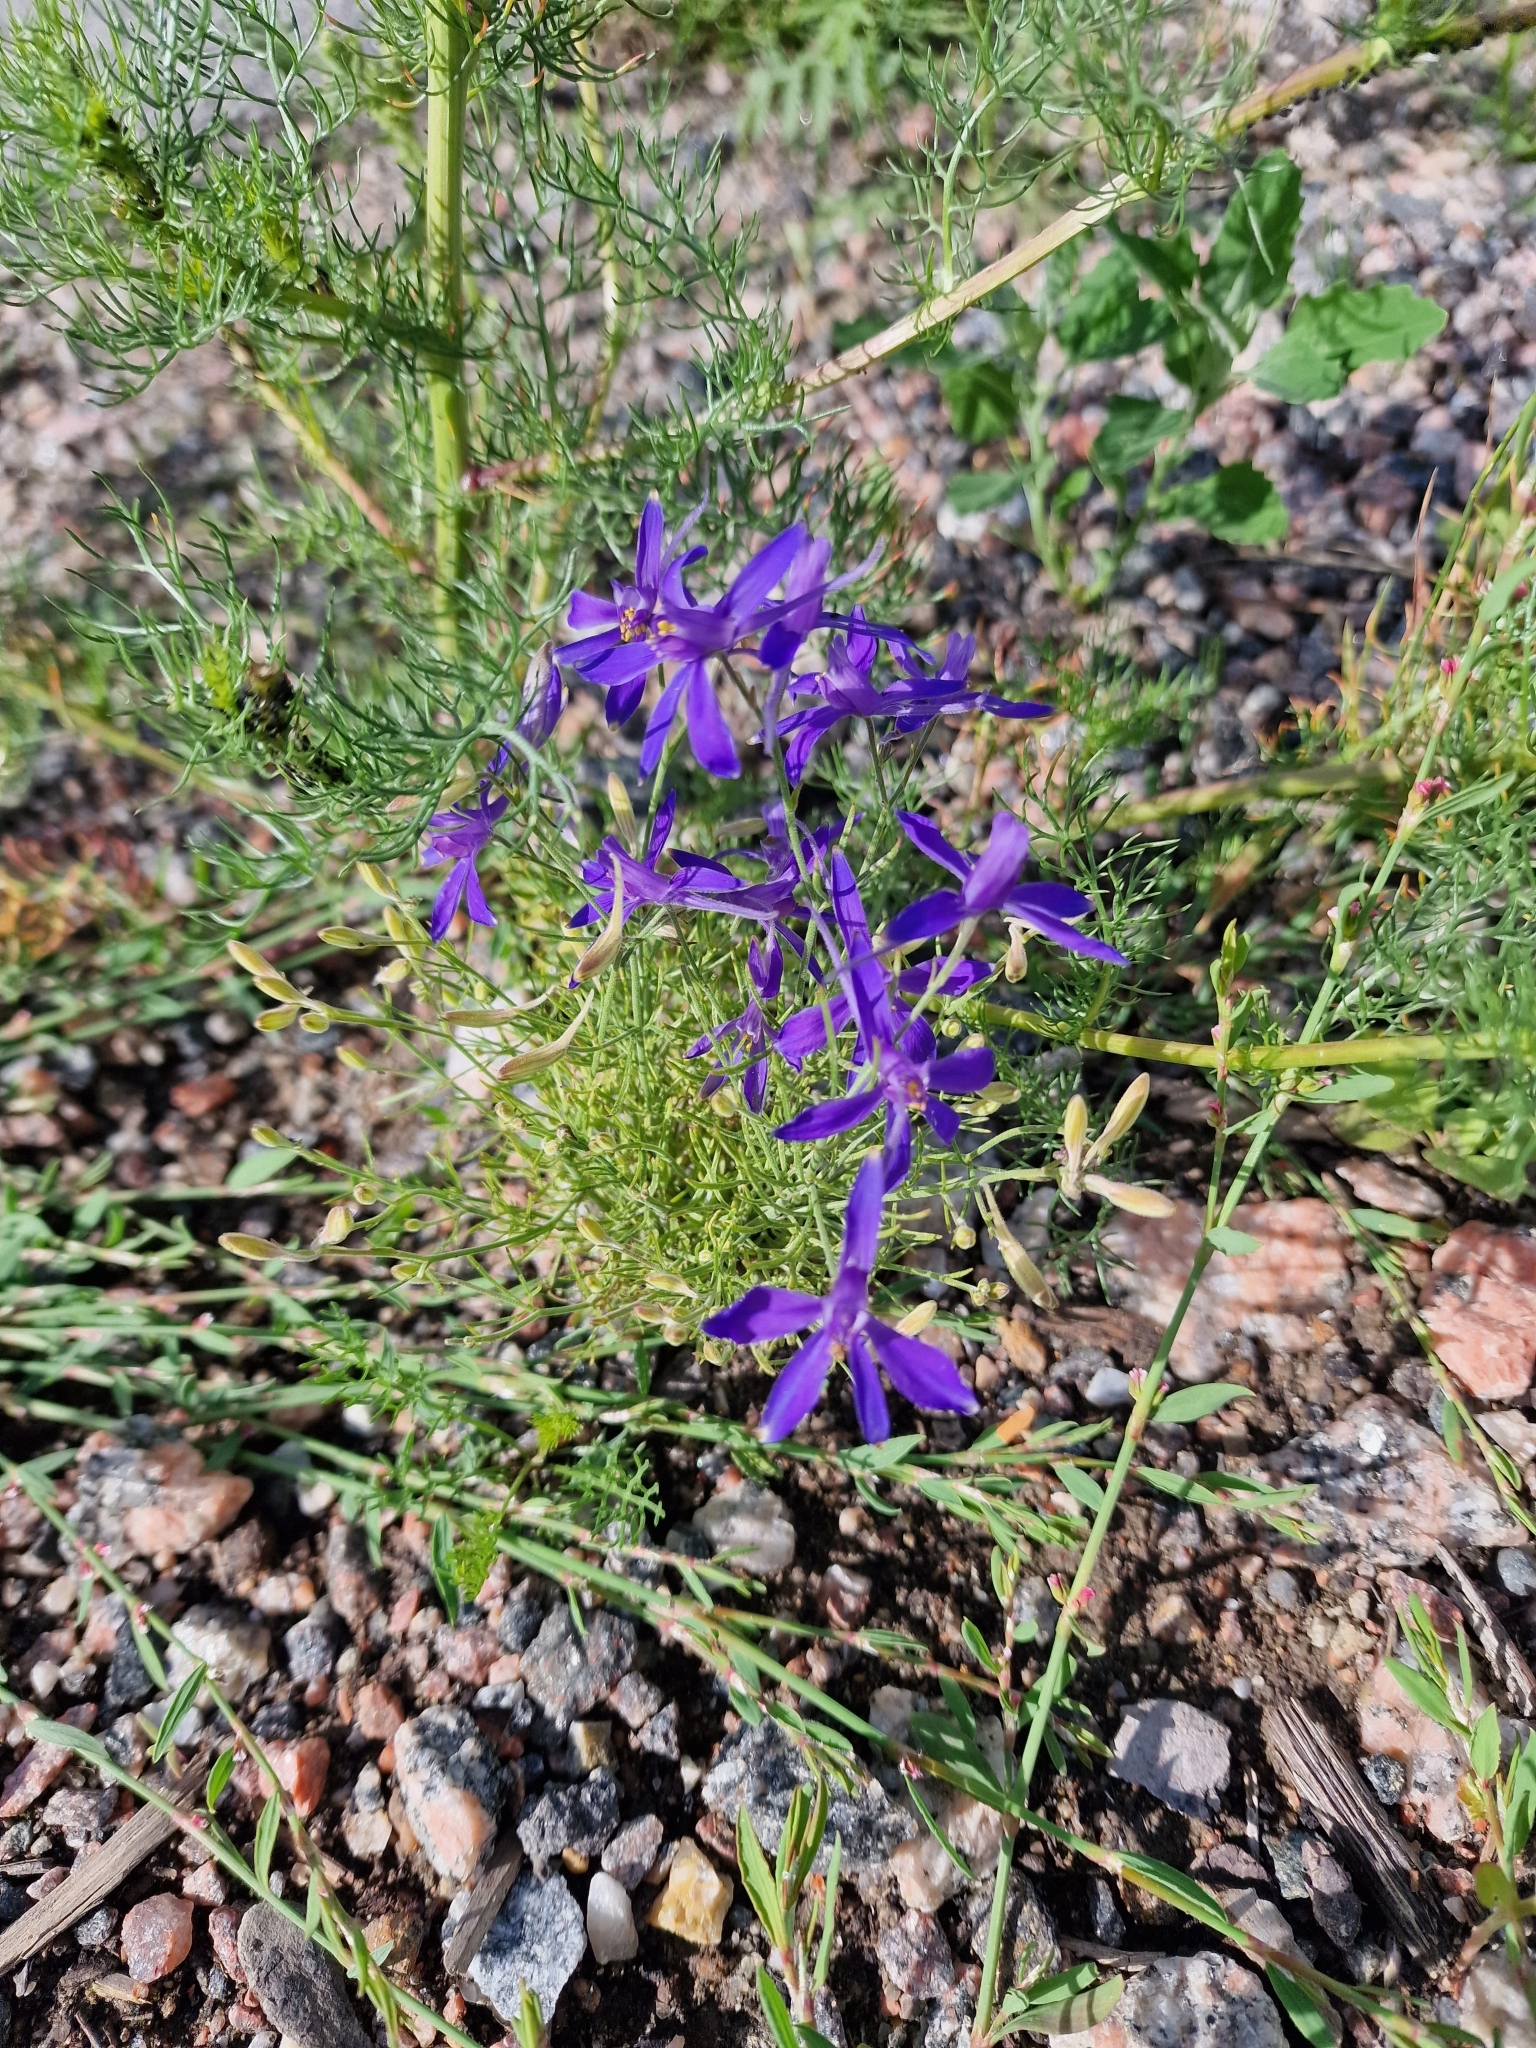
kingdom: Plantae
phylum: Tracheophyta
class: Magnoliopsida
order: Ranunculales
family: Ranunculaceae
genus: Delphinium
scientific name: Delphinium consolida
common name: Branching larkspur
